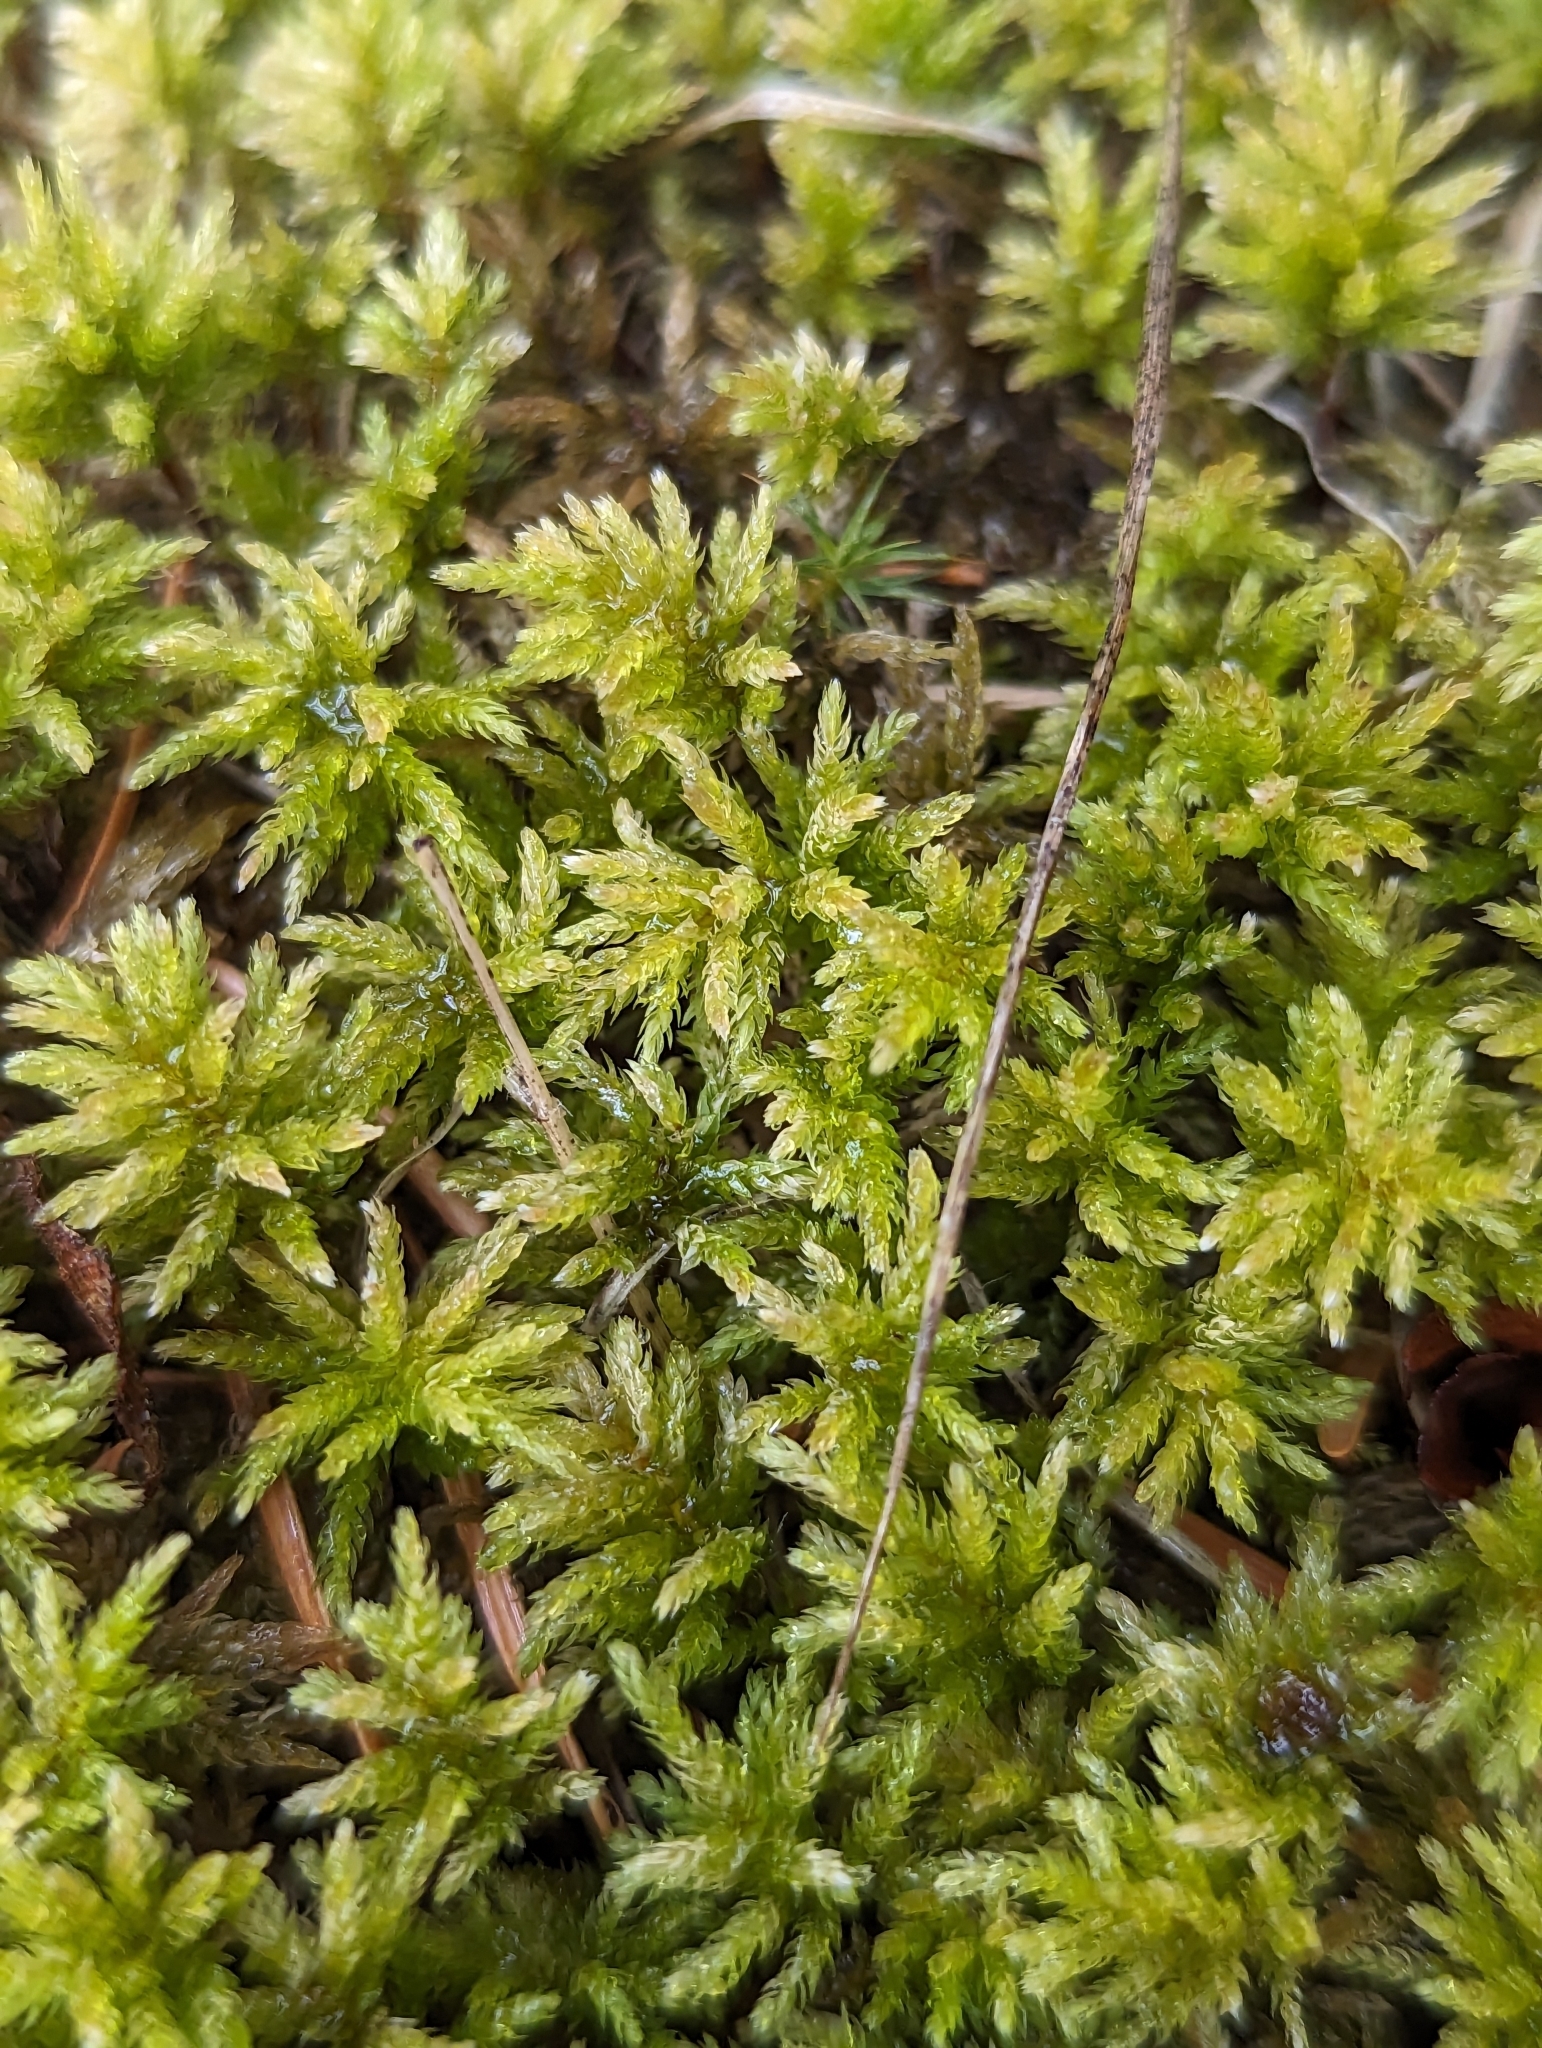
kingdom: Plantae
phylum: Bryophyta
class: Bryopsida
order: Bryales
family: Mniaceae
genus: Leucolepis
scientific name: Leucolepis acanthoneura
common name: Leucolepis umbrella moss
